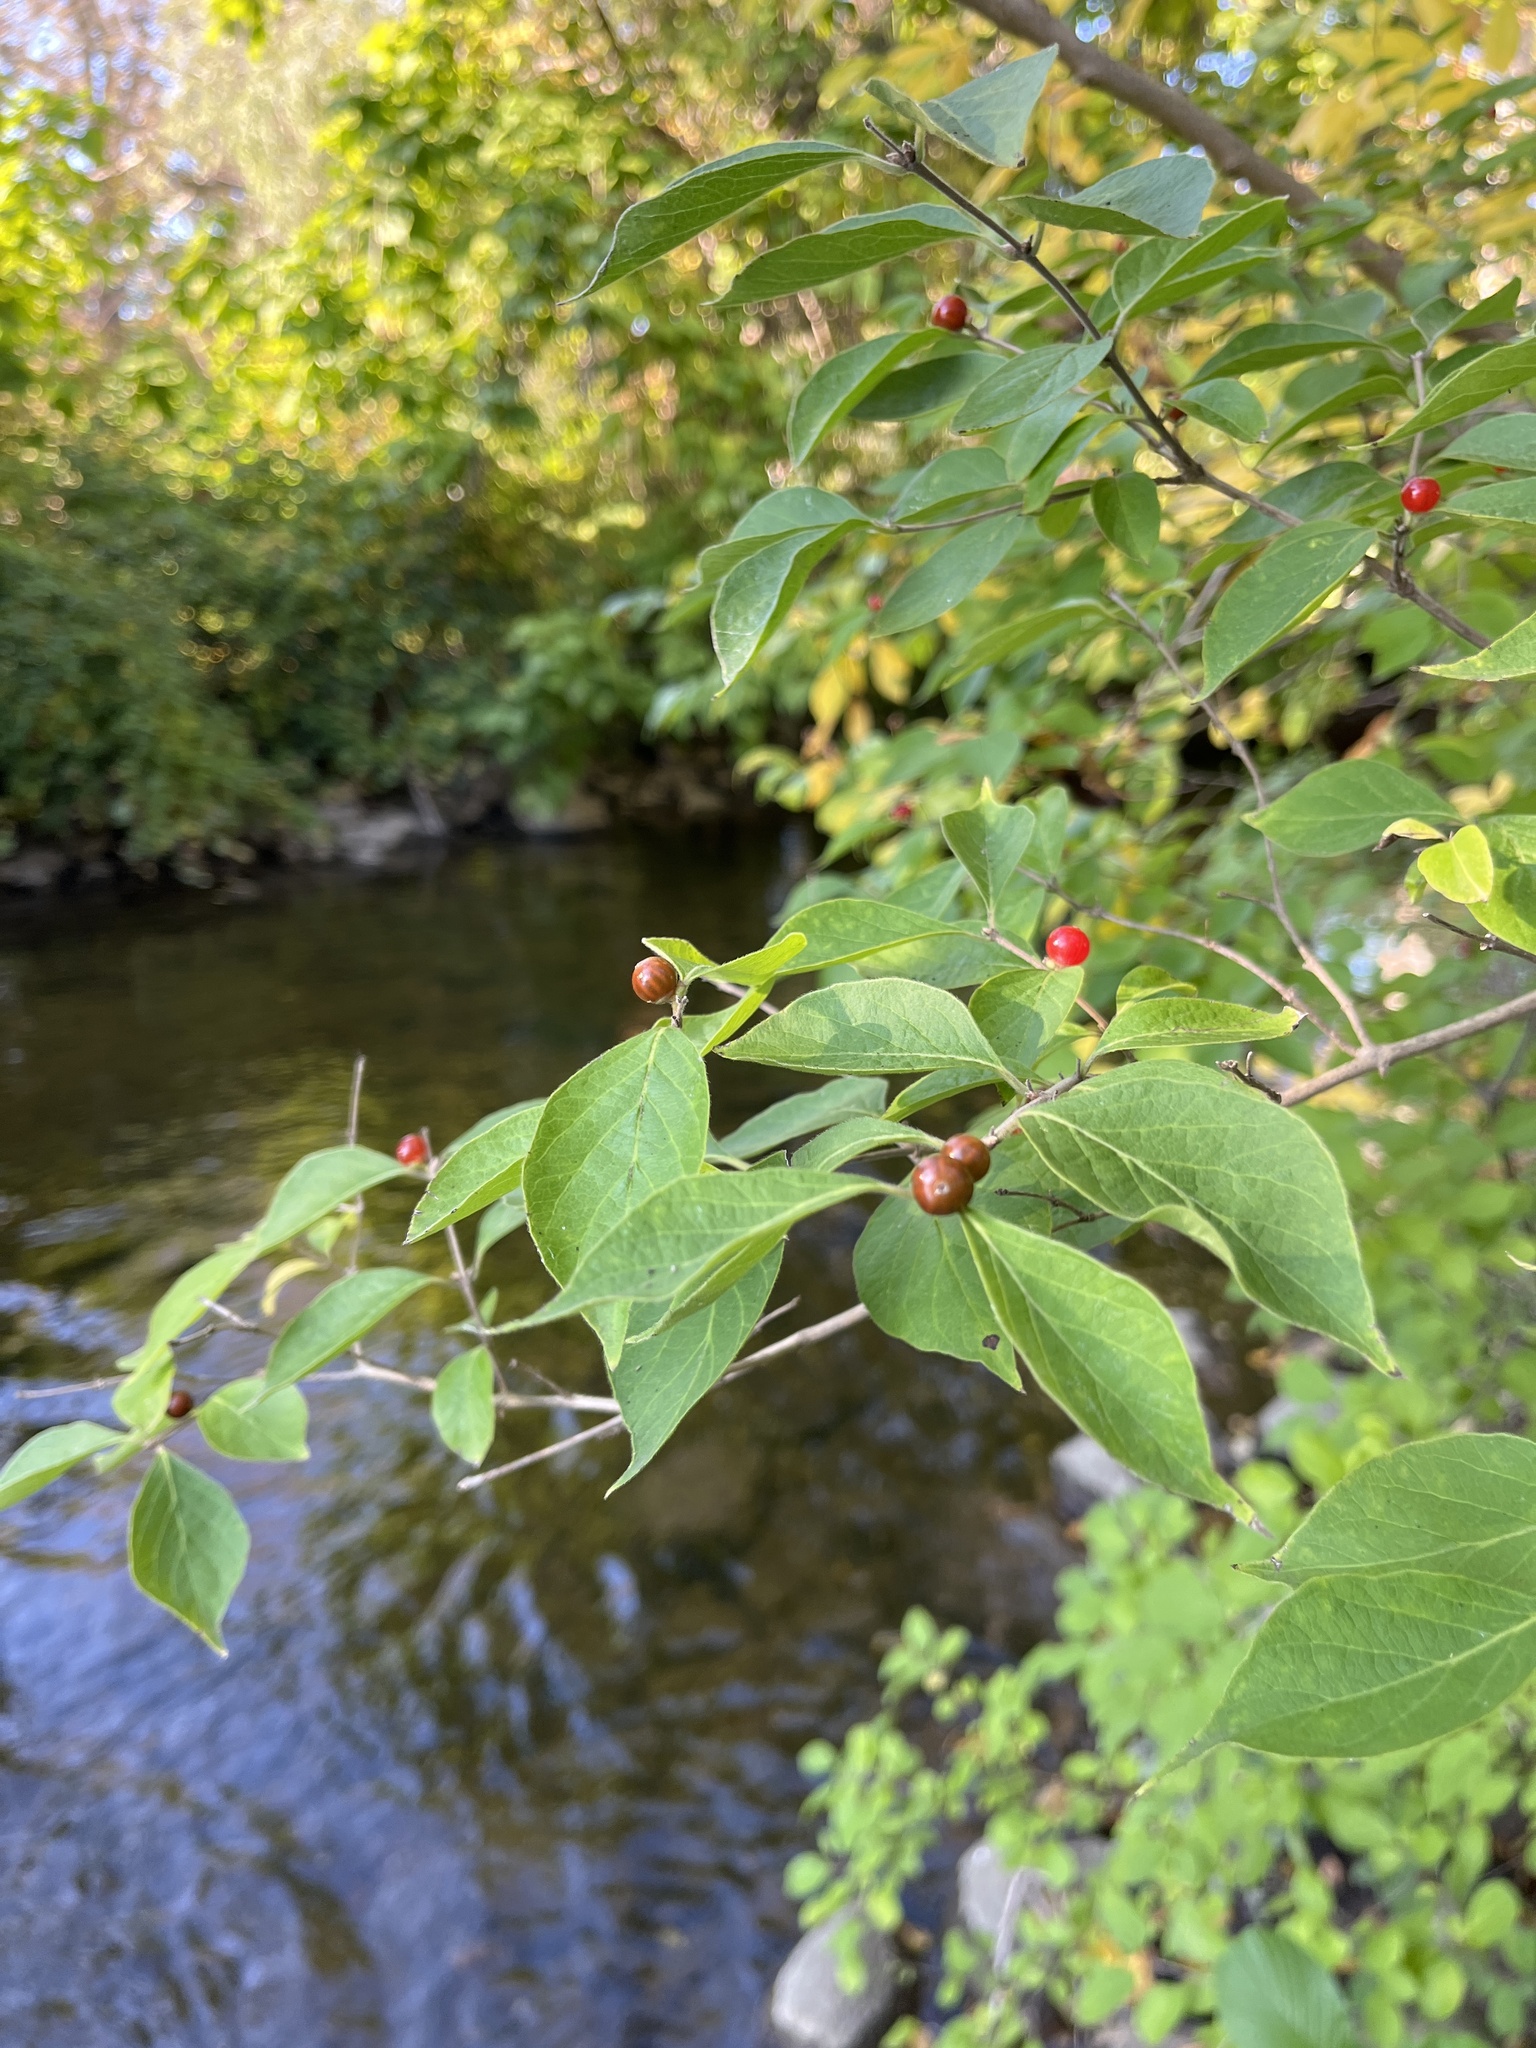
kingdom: Plantae
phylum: Tracheophyta
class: Magnoliopsida
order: Dipsacales
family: Caprifoliaceae
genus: Lonicera
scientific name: Lonicera maackii
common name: Amur honeysuckle
